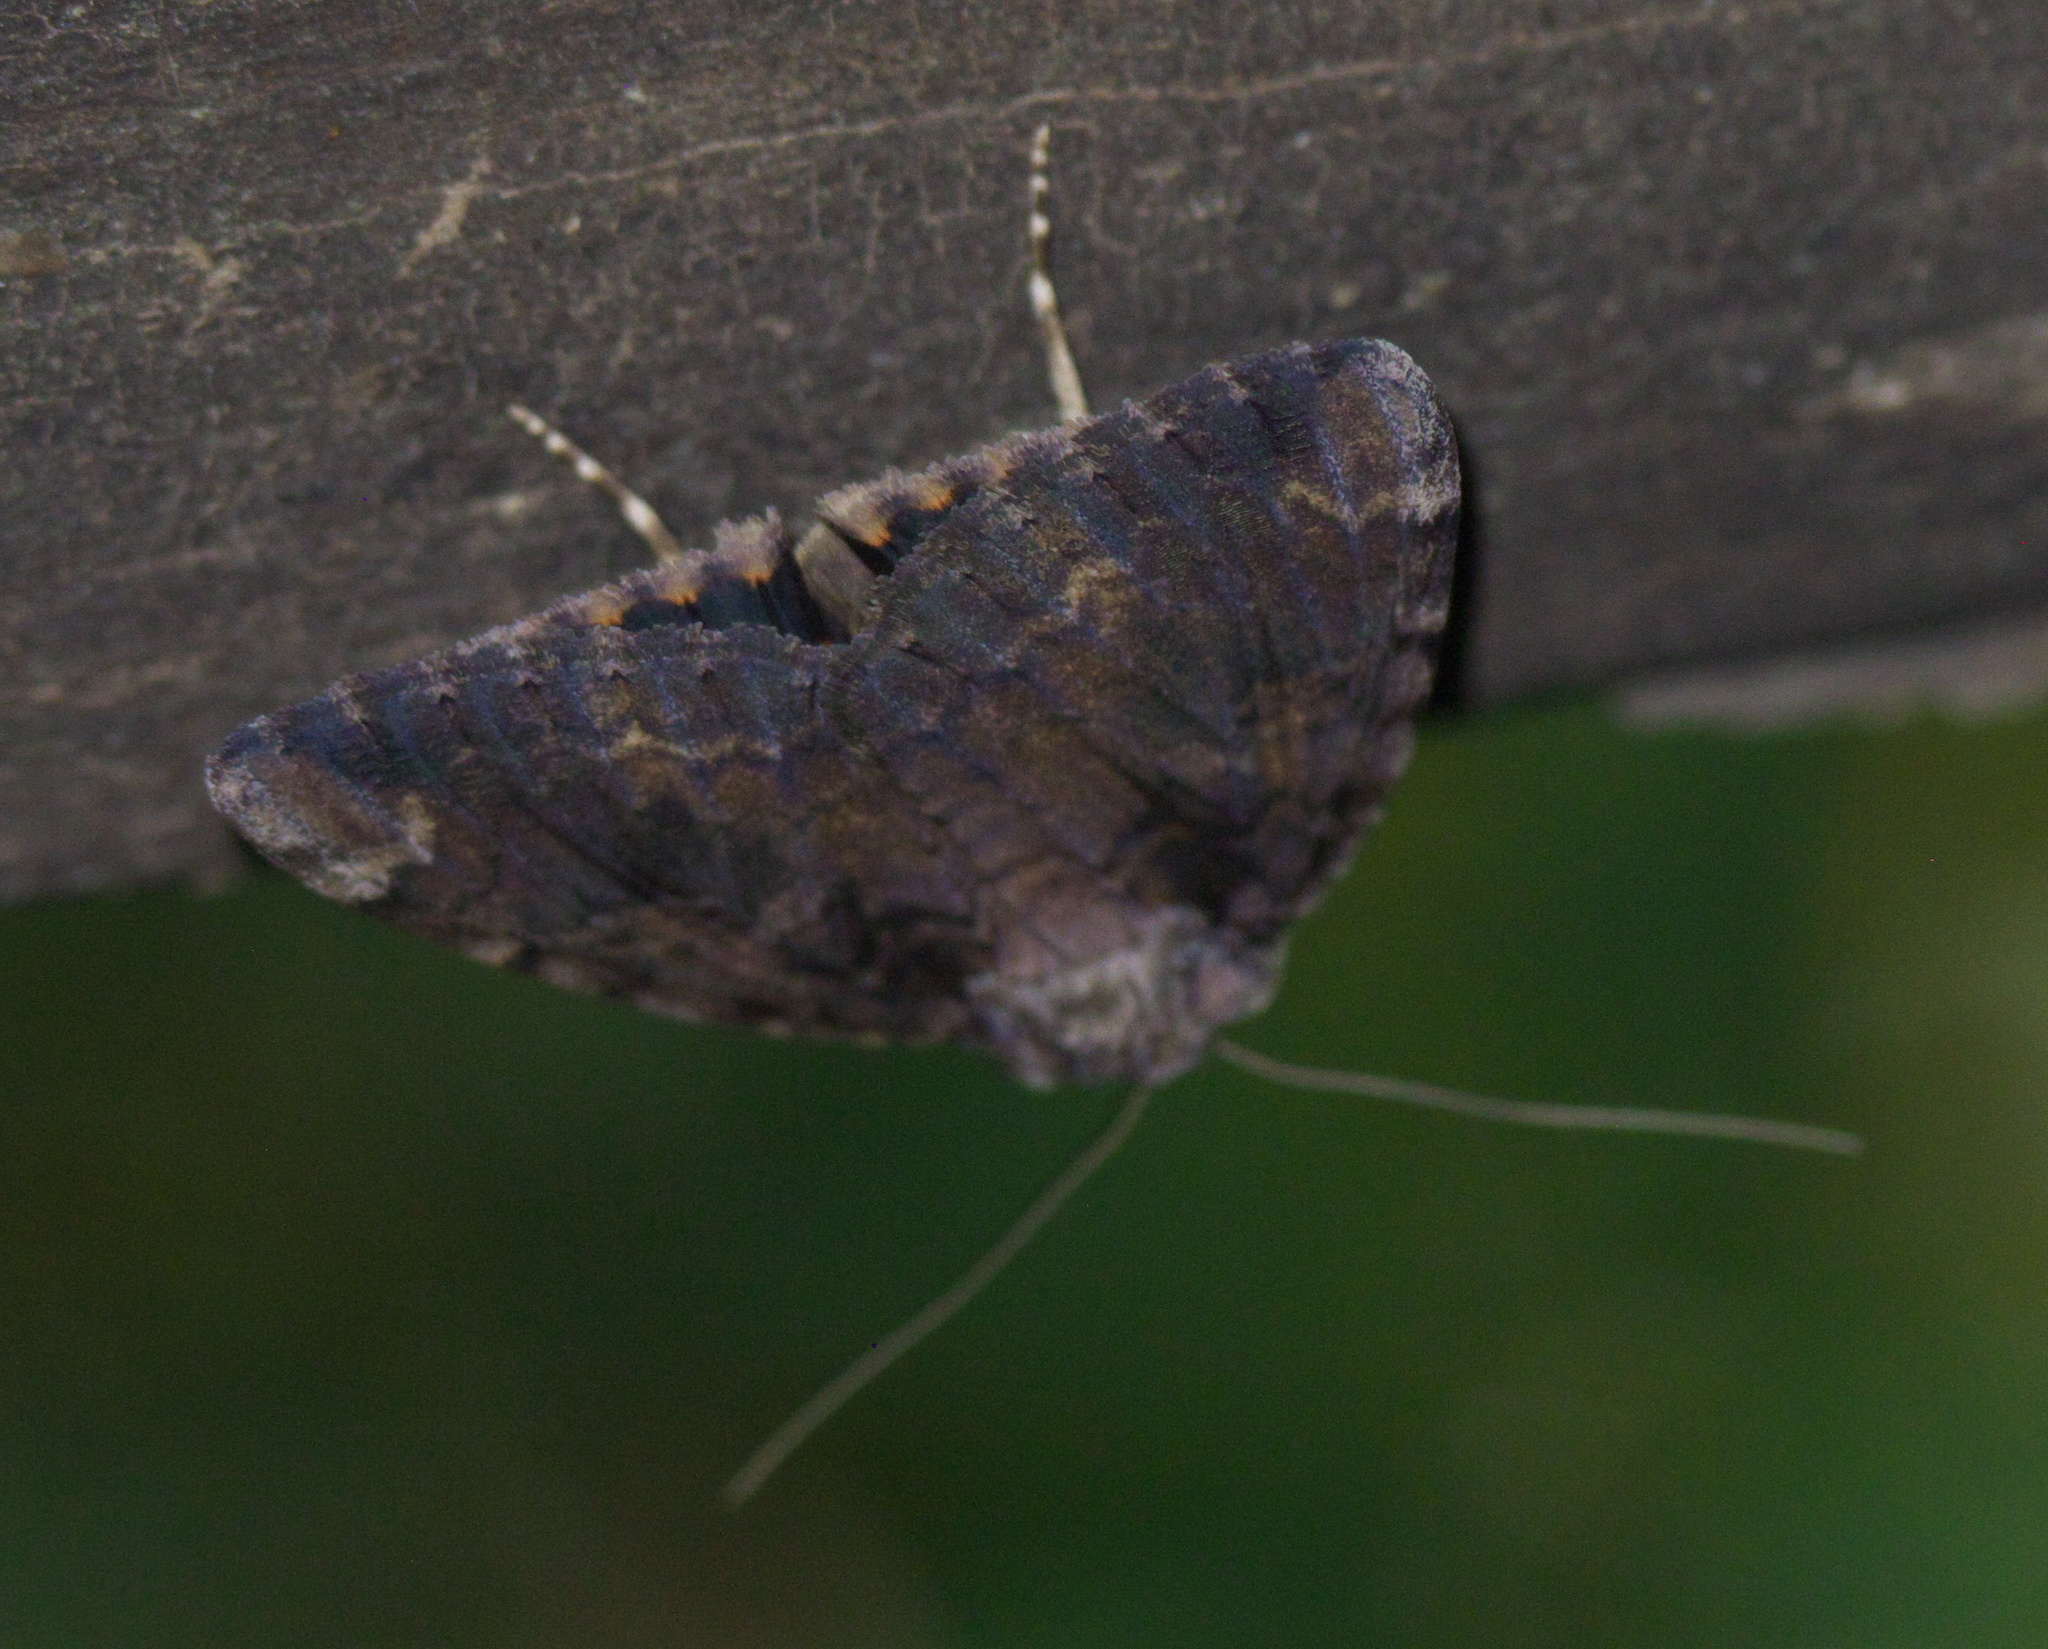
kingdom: Animalia
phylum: Arthropoda
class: Insecta
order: Lepidoptera
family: Erebidae
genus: Catocala
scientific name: Catocala innubens
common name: Betrothed underwing
